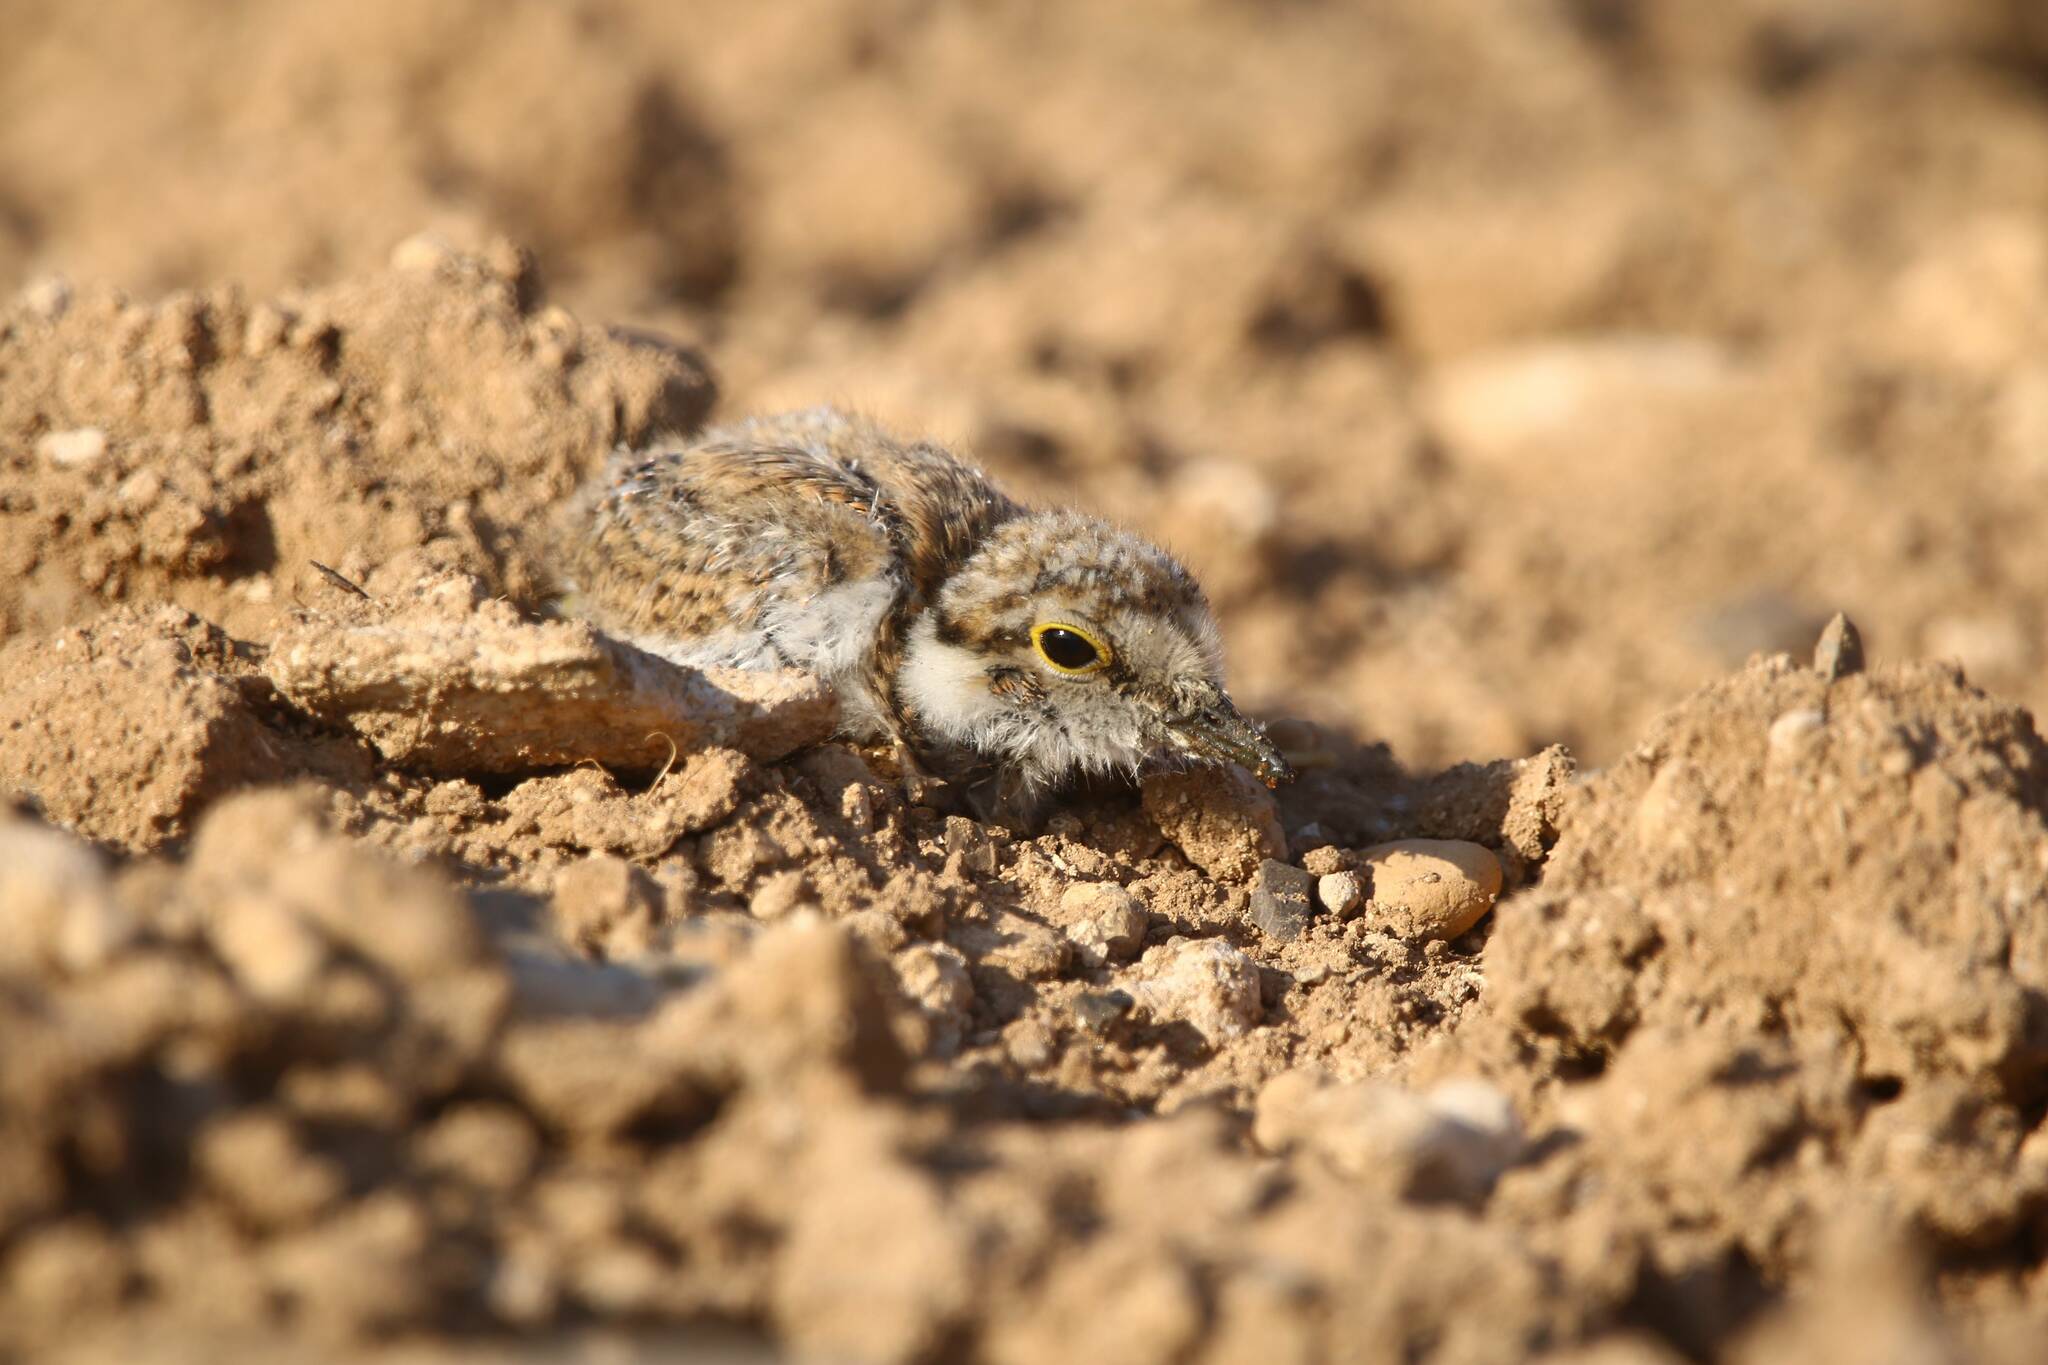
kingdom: Animalia
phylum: Chordata
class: Aves
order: Charadriiformes
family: Charadriidae
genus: Charadrius
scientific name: Charadrius dubius
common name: Little ringed plover
